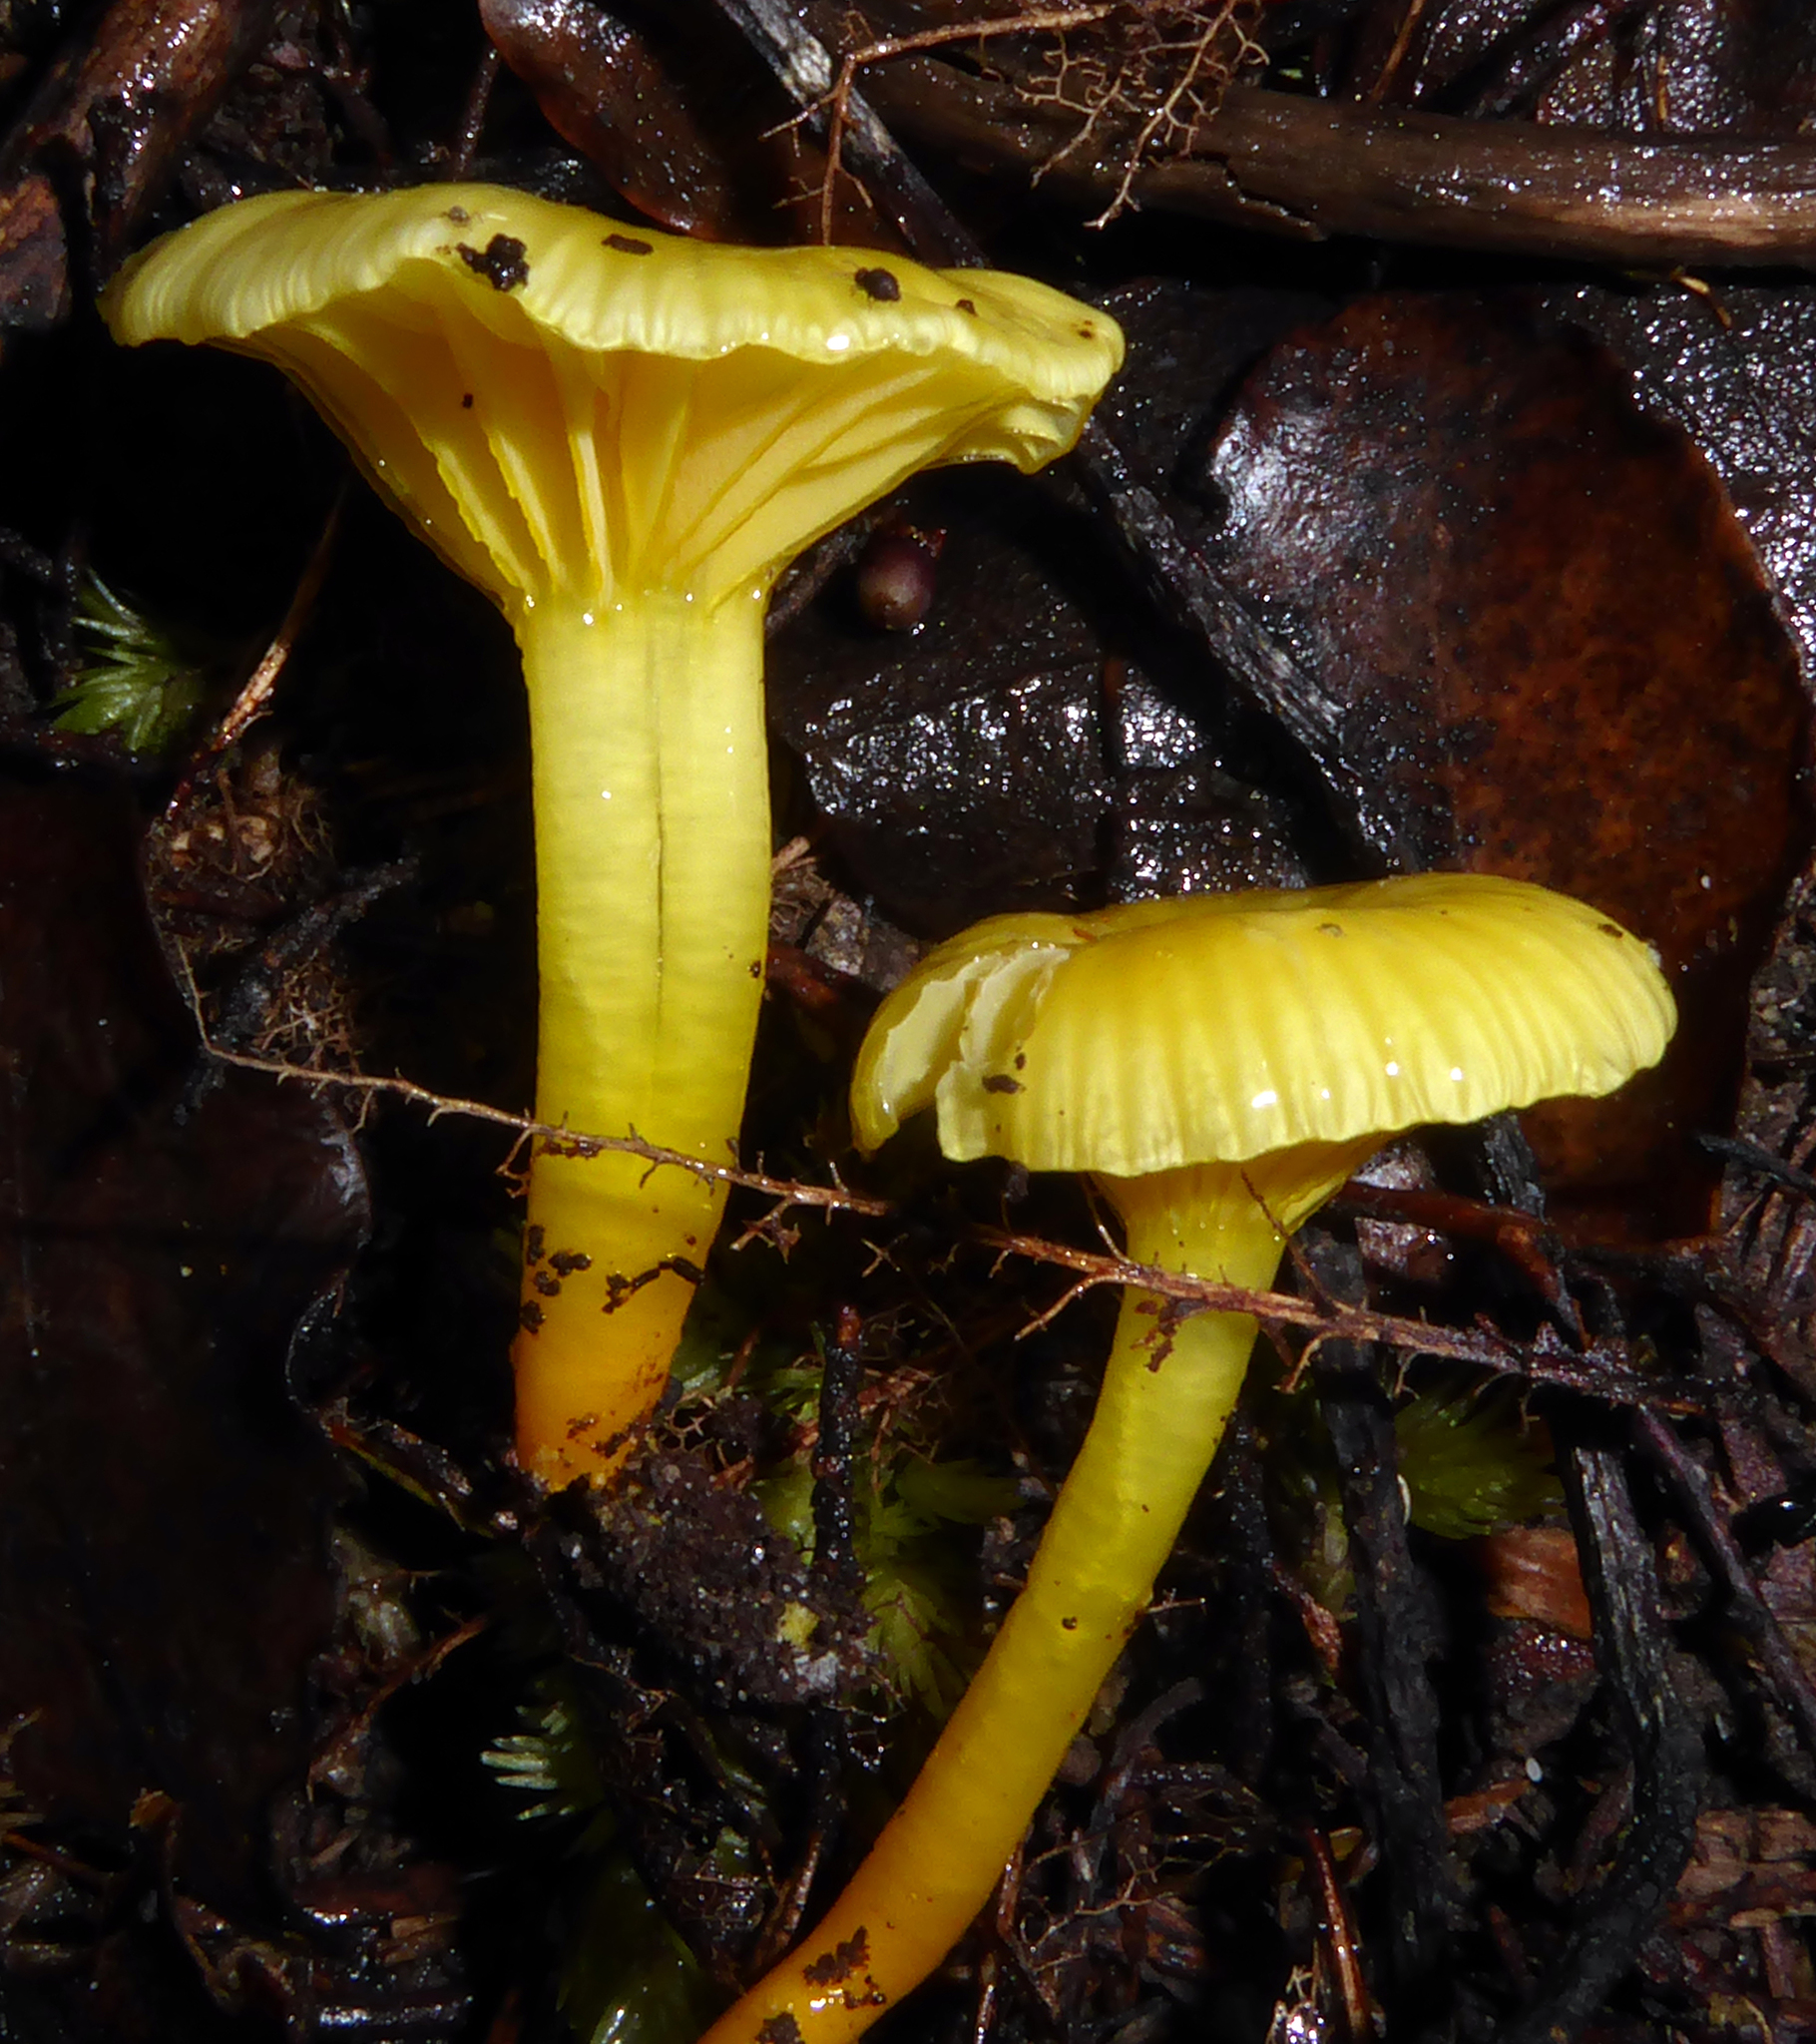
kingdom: Fungi
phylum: Basidiomycota
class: Agaricomycetes
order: Agaricales
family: Hygrophoraceae
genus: Gloioxanthomyces
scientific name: Gloioxanthomyces
